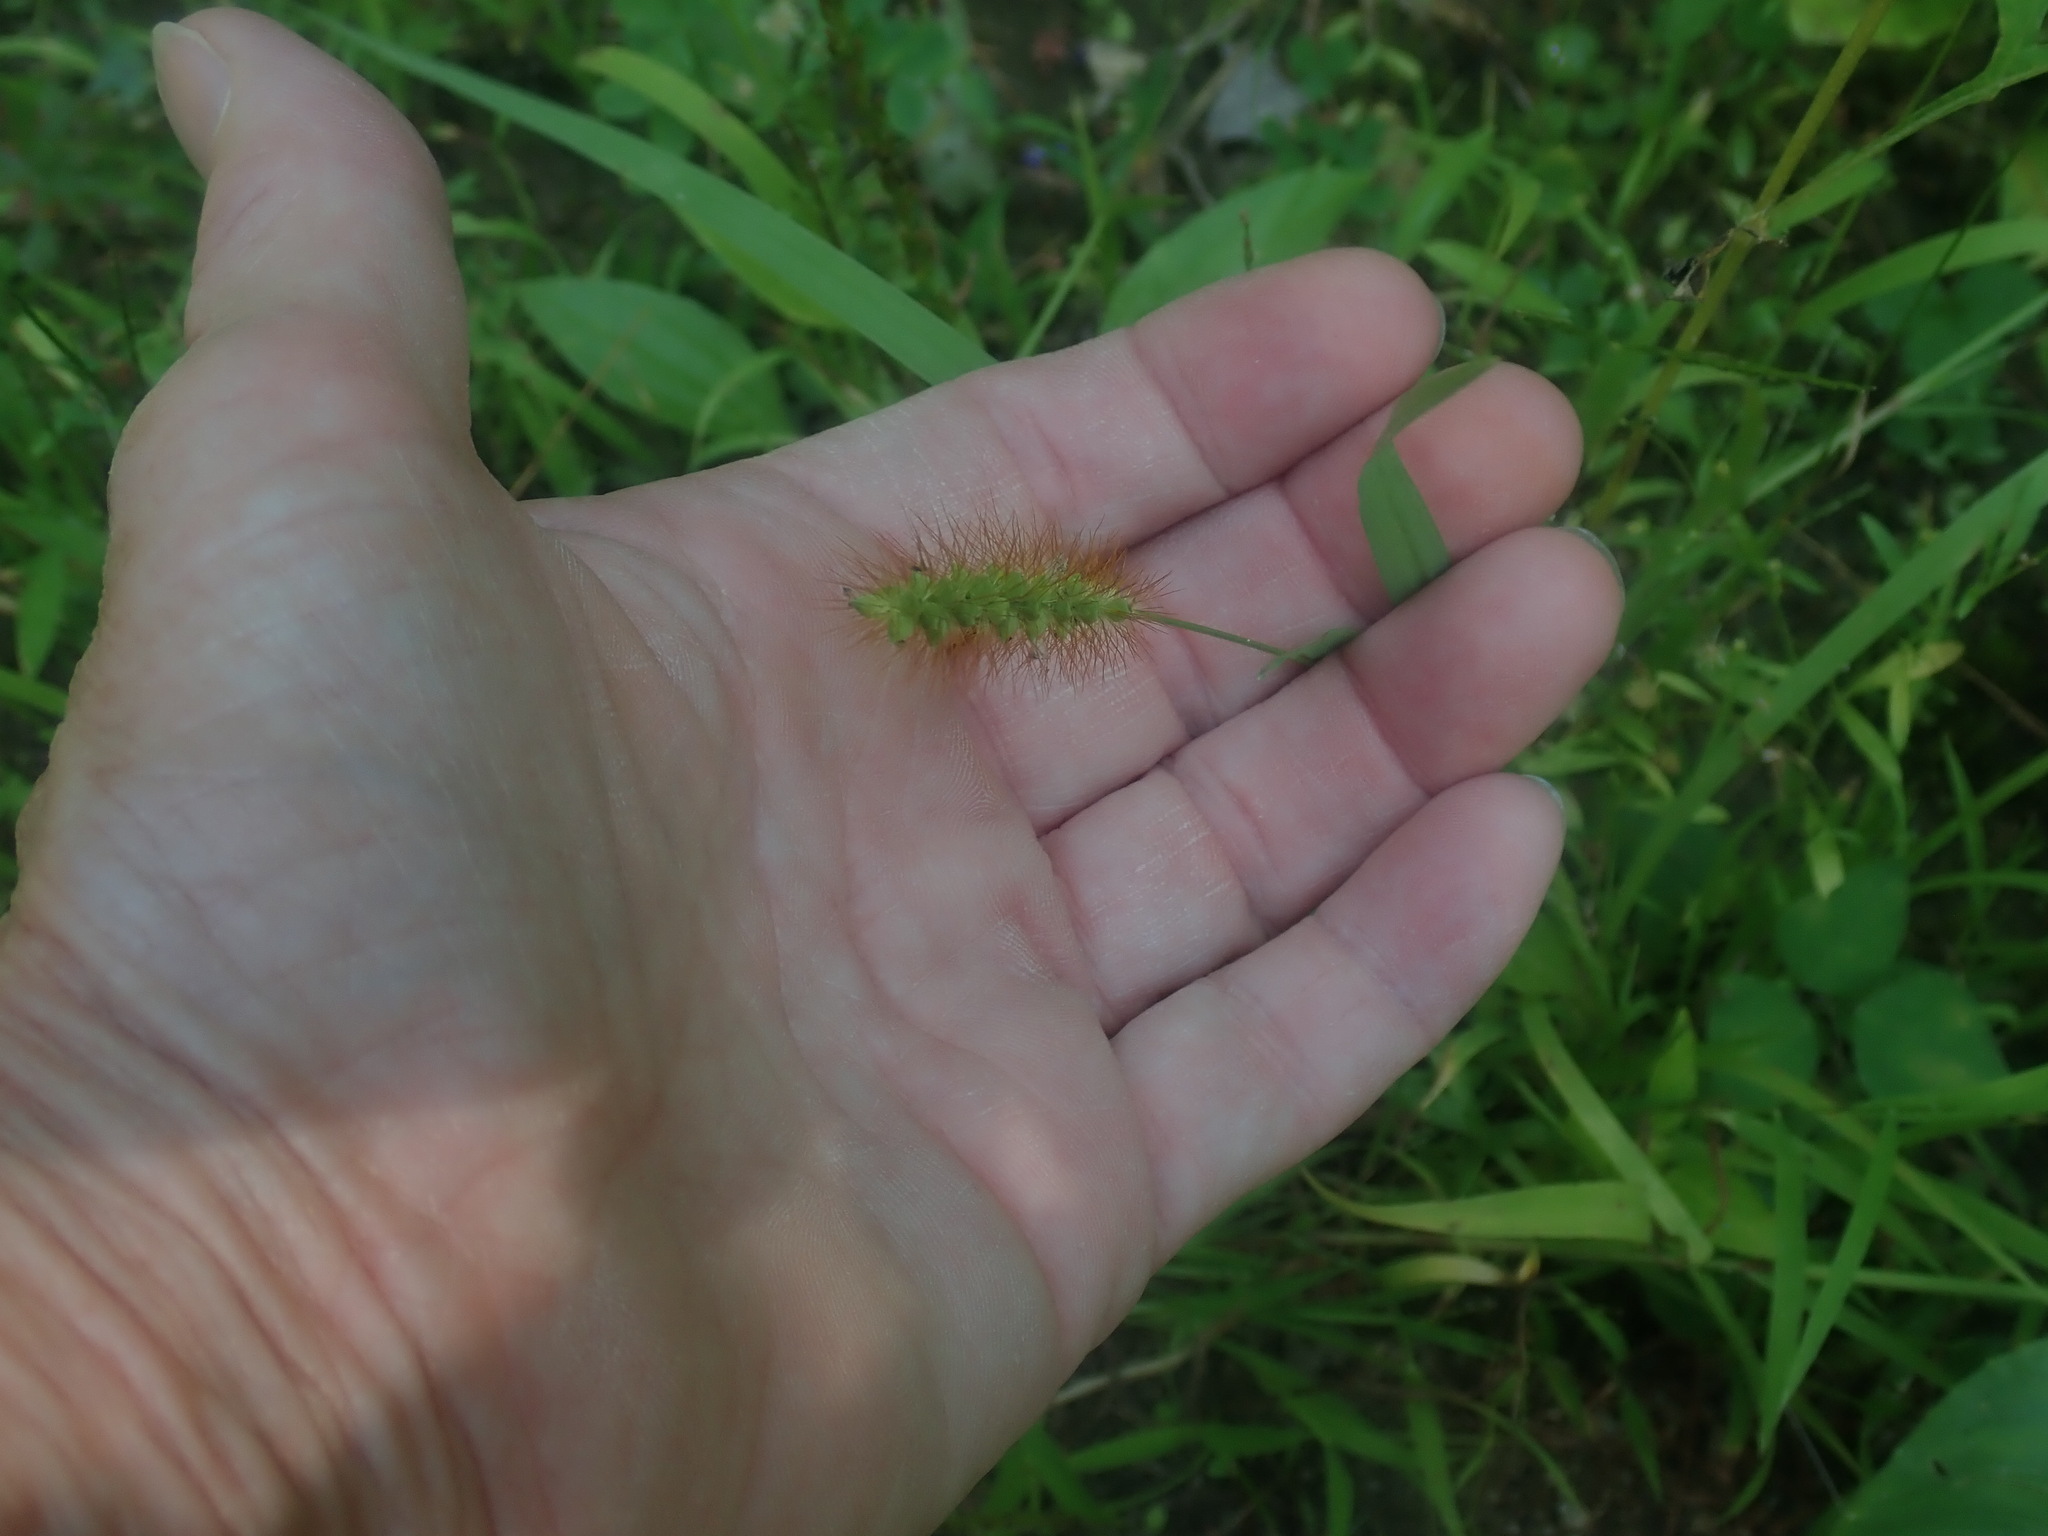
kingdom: Plantae
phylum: Tracheophyta
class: Liliopsida
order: Poales
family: Poaceae
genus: Setaria
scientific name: Setaria pumila
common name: Yellow bristle-grass
